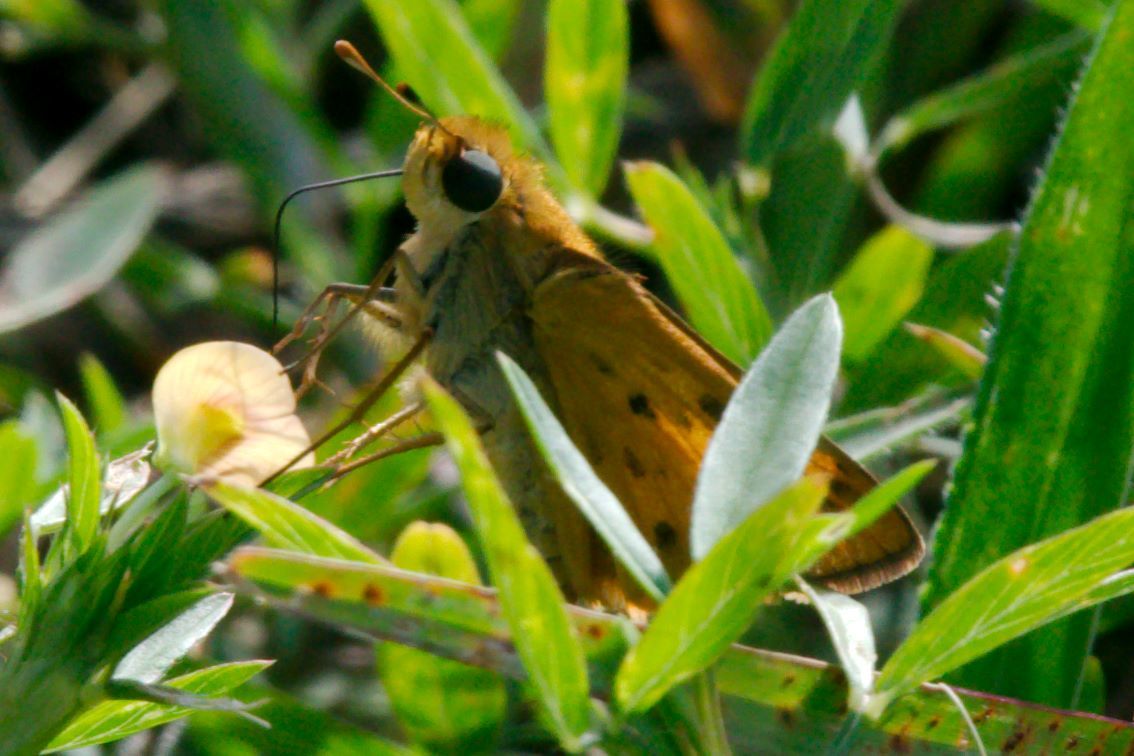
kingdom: Animalia
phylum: Arthropoda
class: Insecta
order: Lepidoptera
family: Hesperiidae
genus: Hylephila
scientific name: Hylephila phyleus
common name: Fiery skipper
